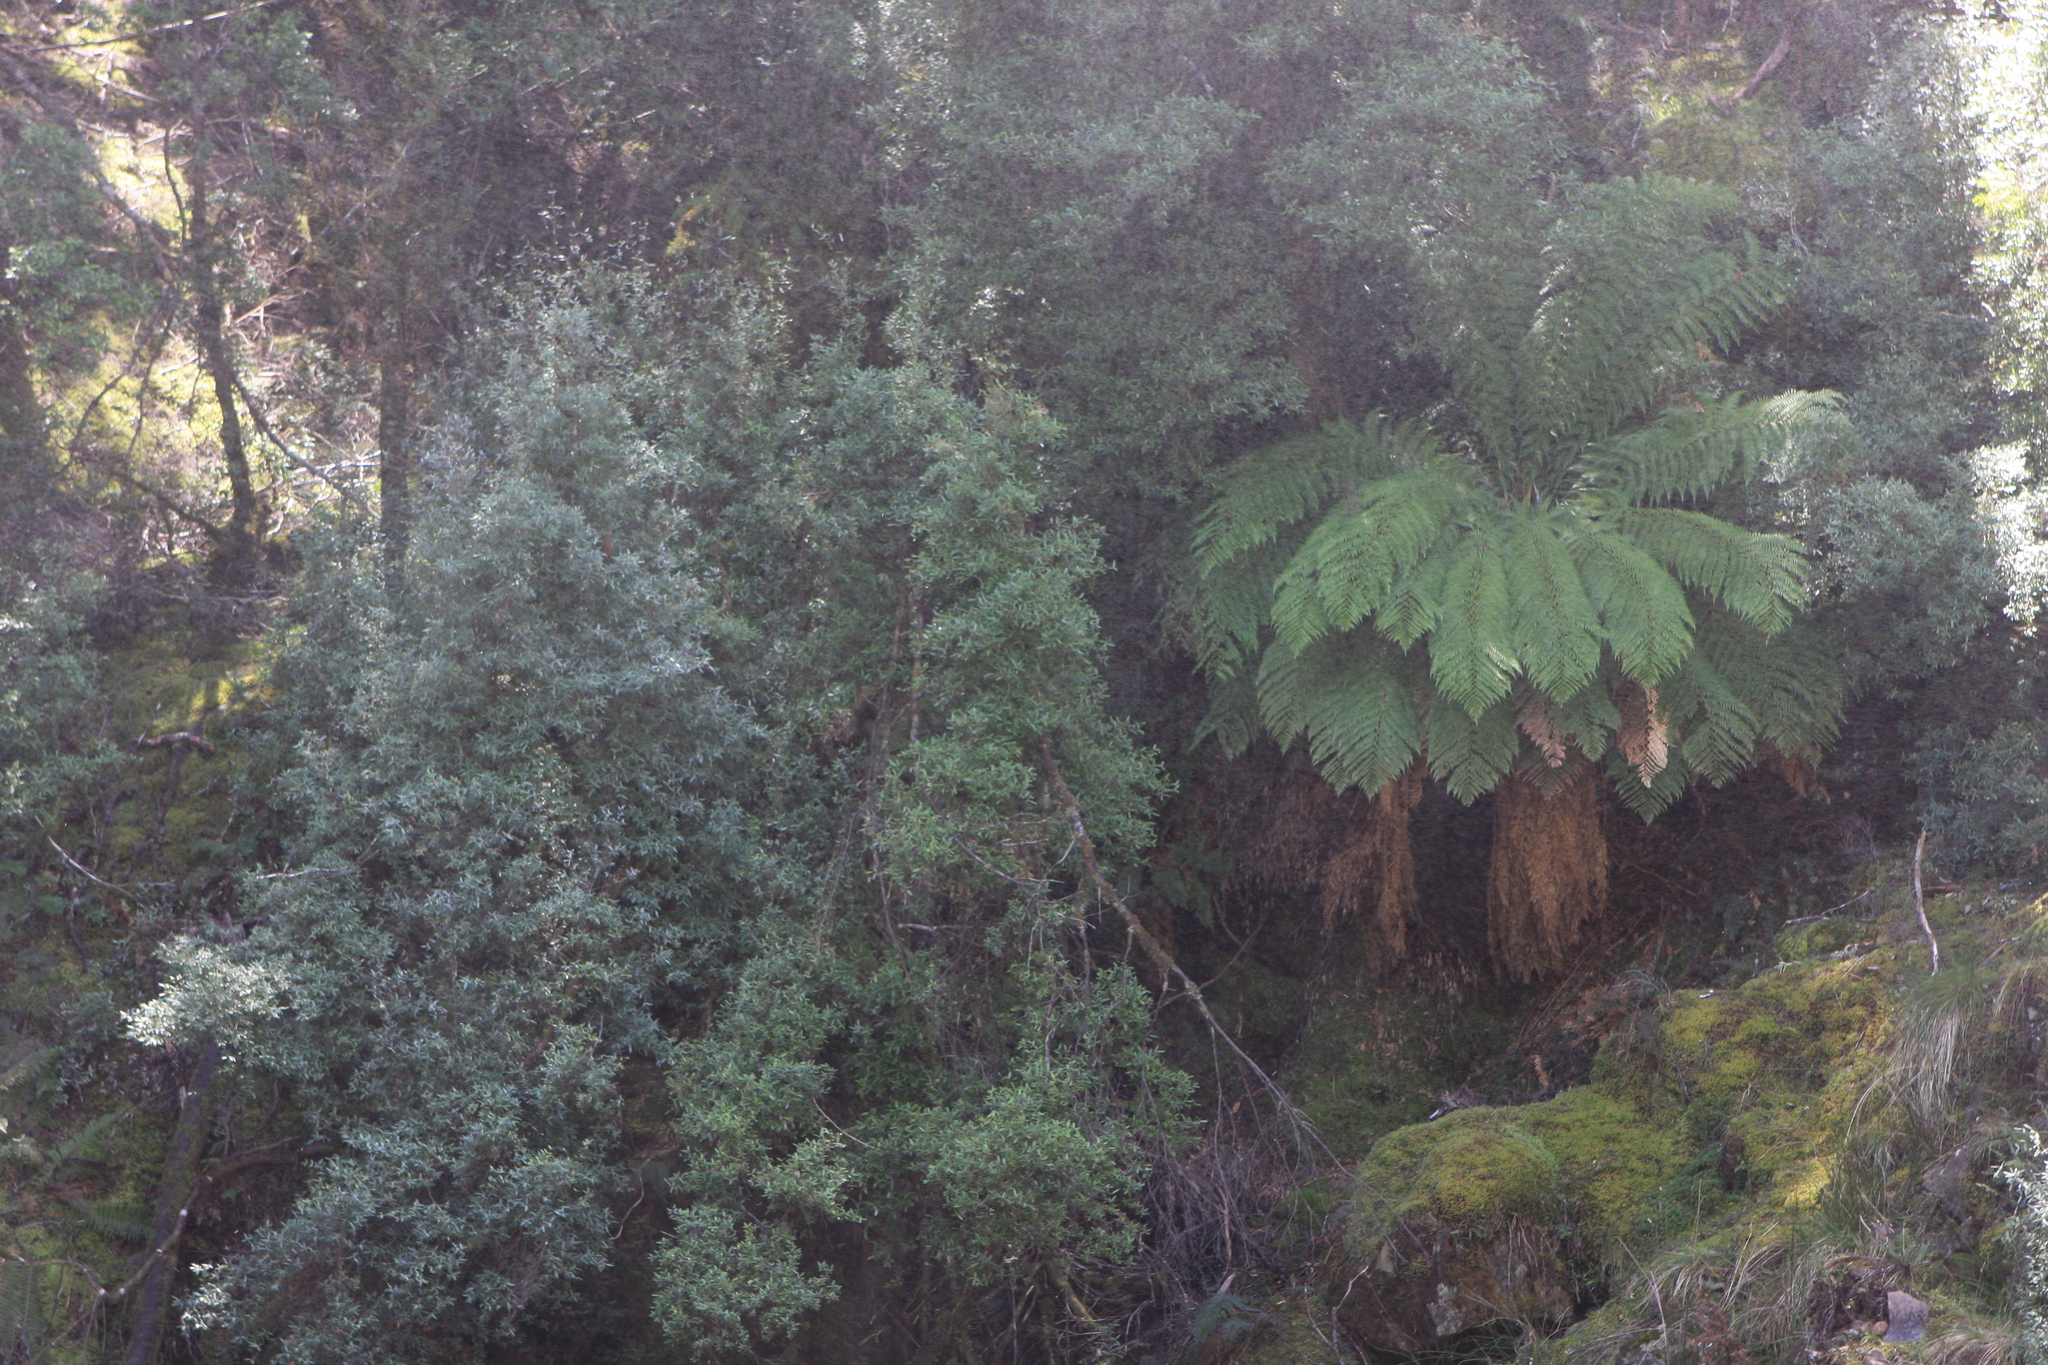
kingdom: Plantae
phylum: Tracheophyta
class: Polypodiopsida
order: Cyatheales
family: Dicksoniaceae
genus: Dicksonia
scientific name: Dicksonia antarctica
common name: Australian treefern
